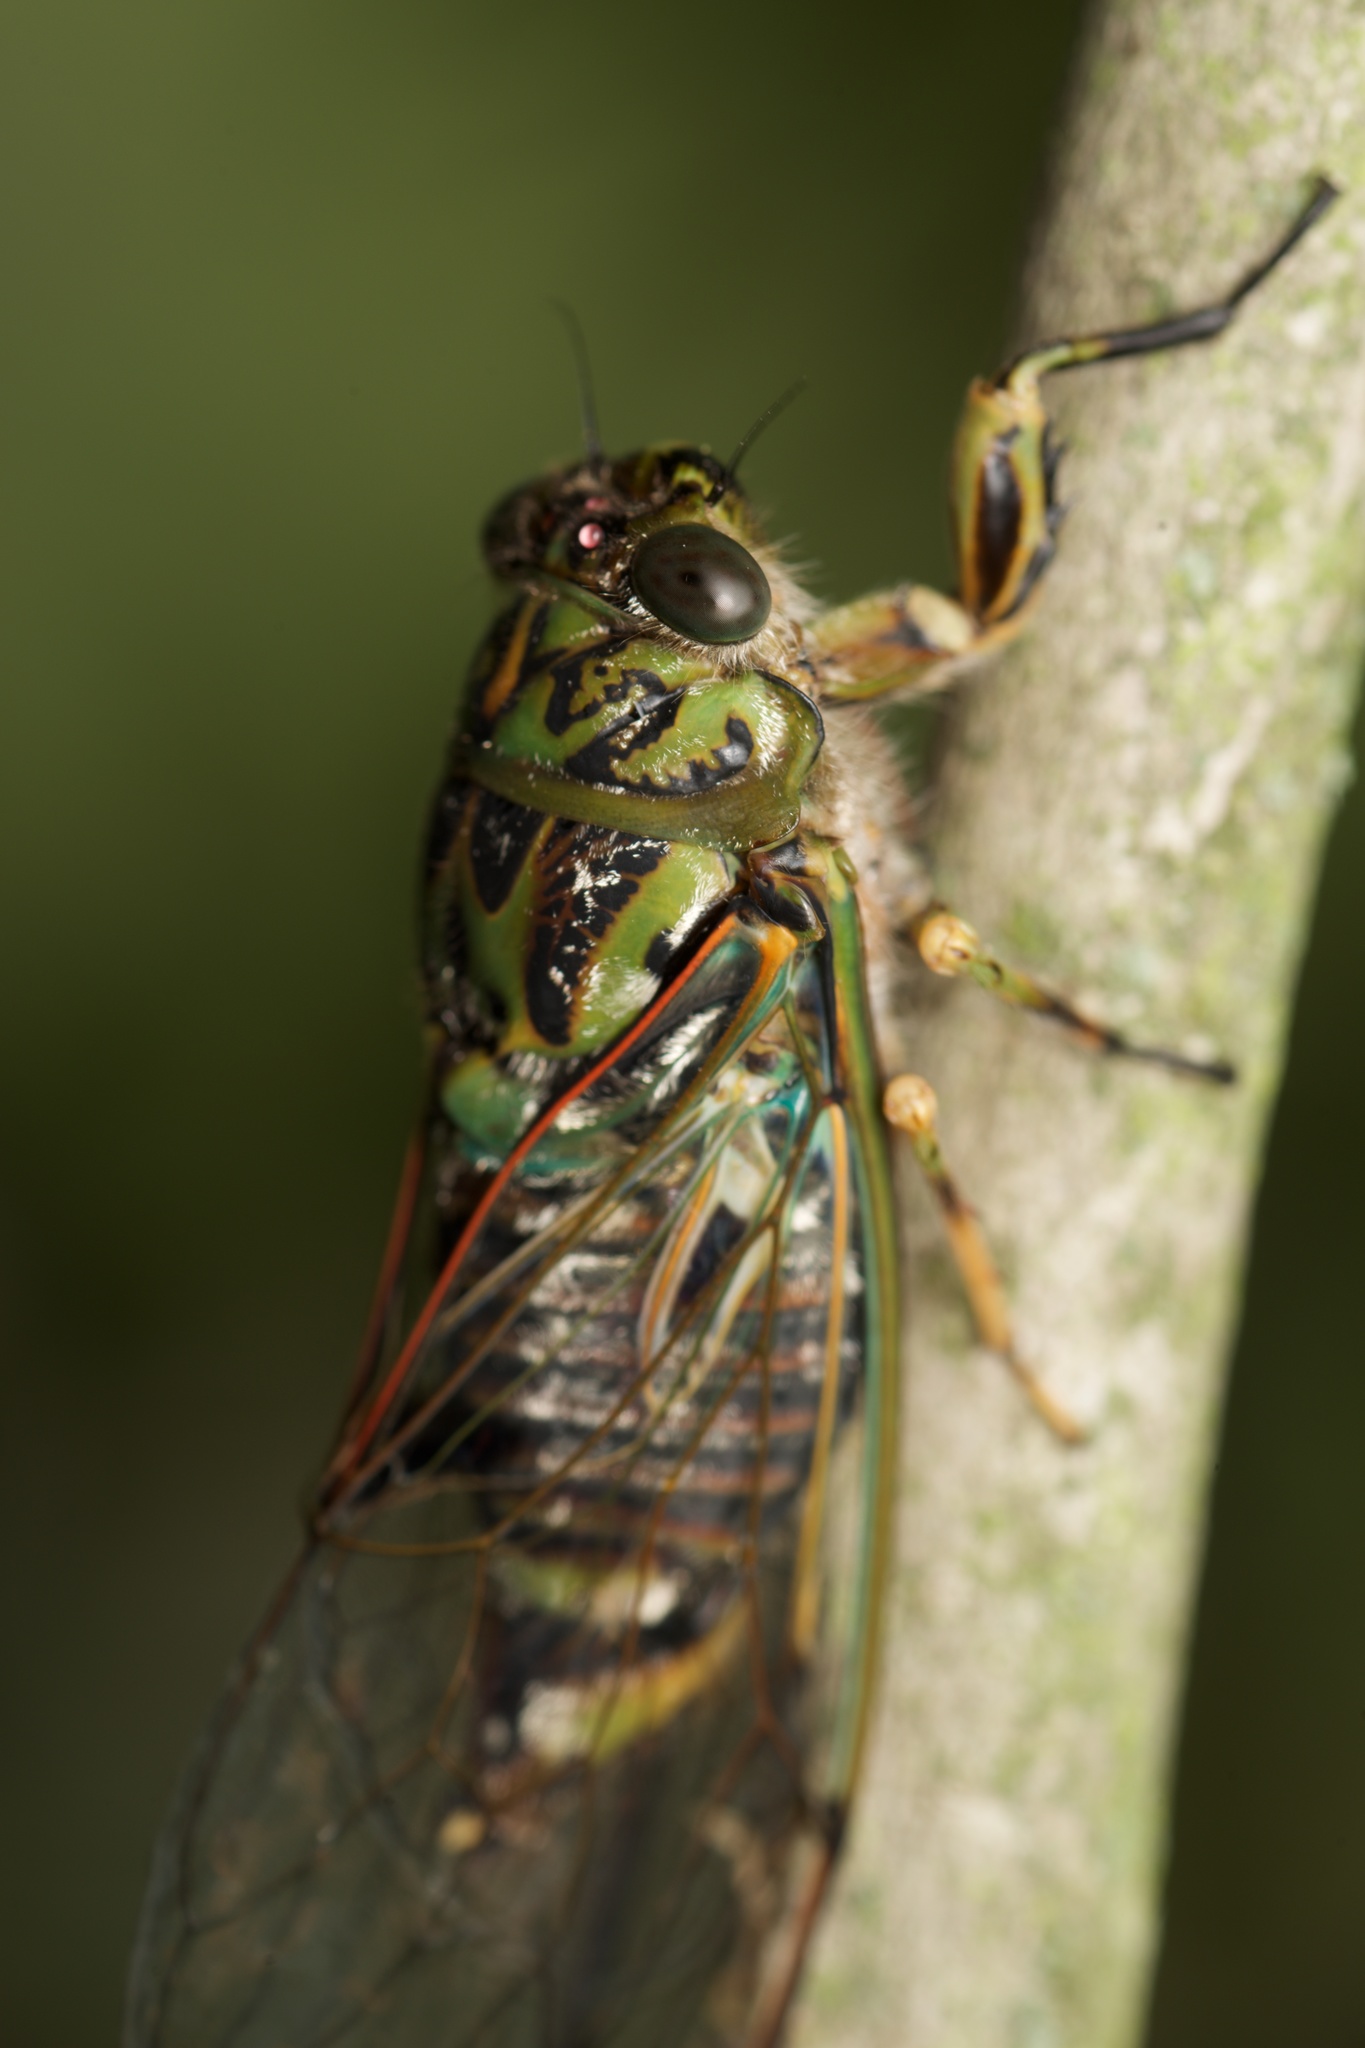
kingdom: Animalia
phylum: Arthropoda
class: Insecta
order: Hemiptera
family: Cicadidae
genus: Amphipsalta
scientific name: Amphipsalta zelandica
